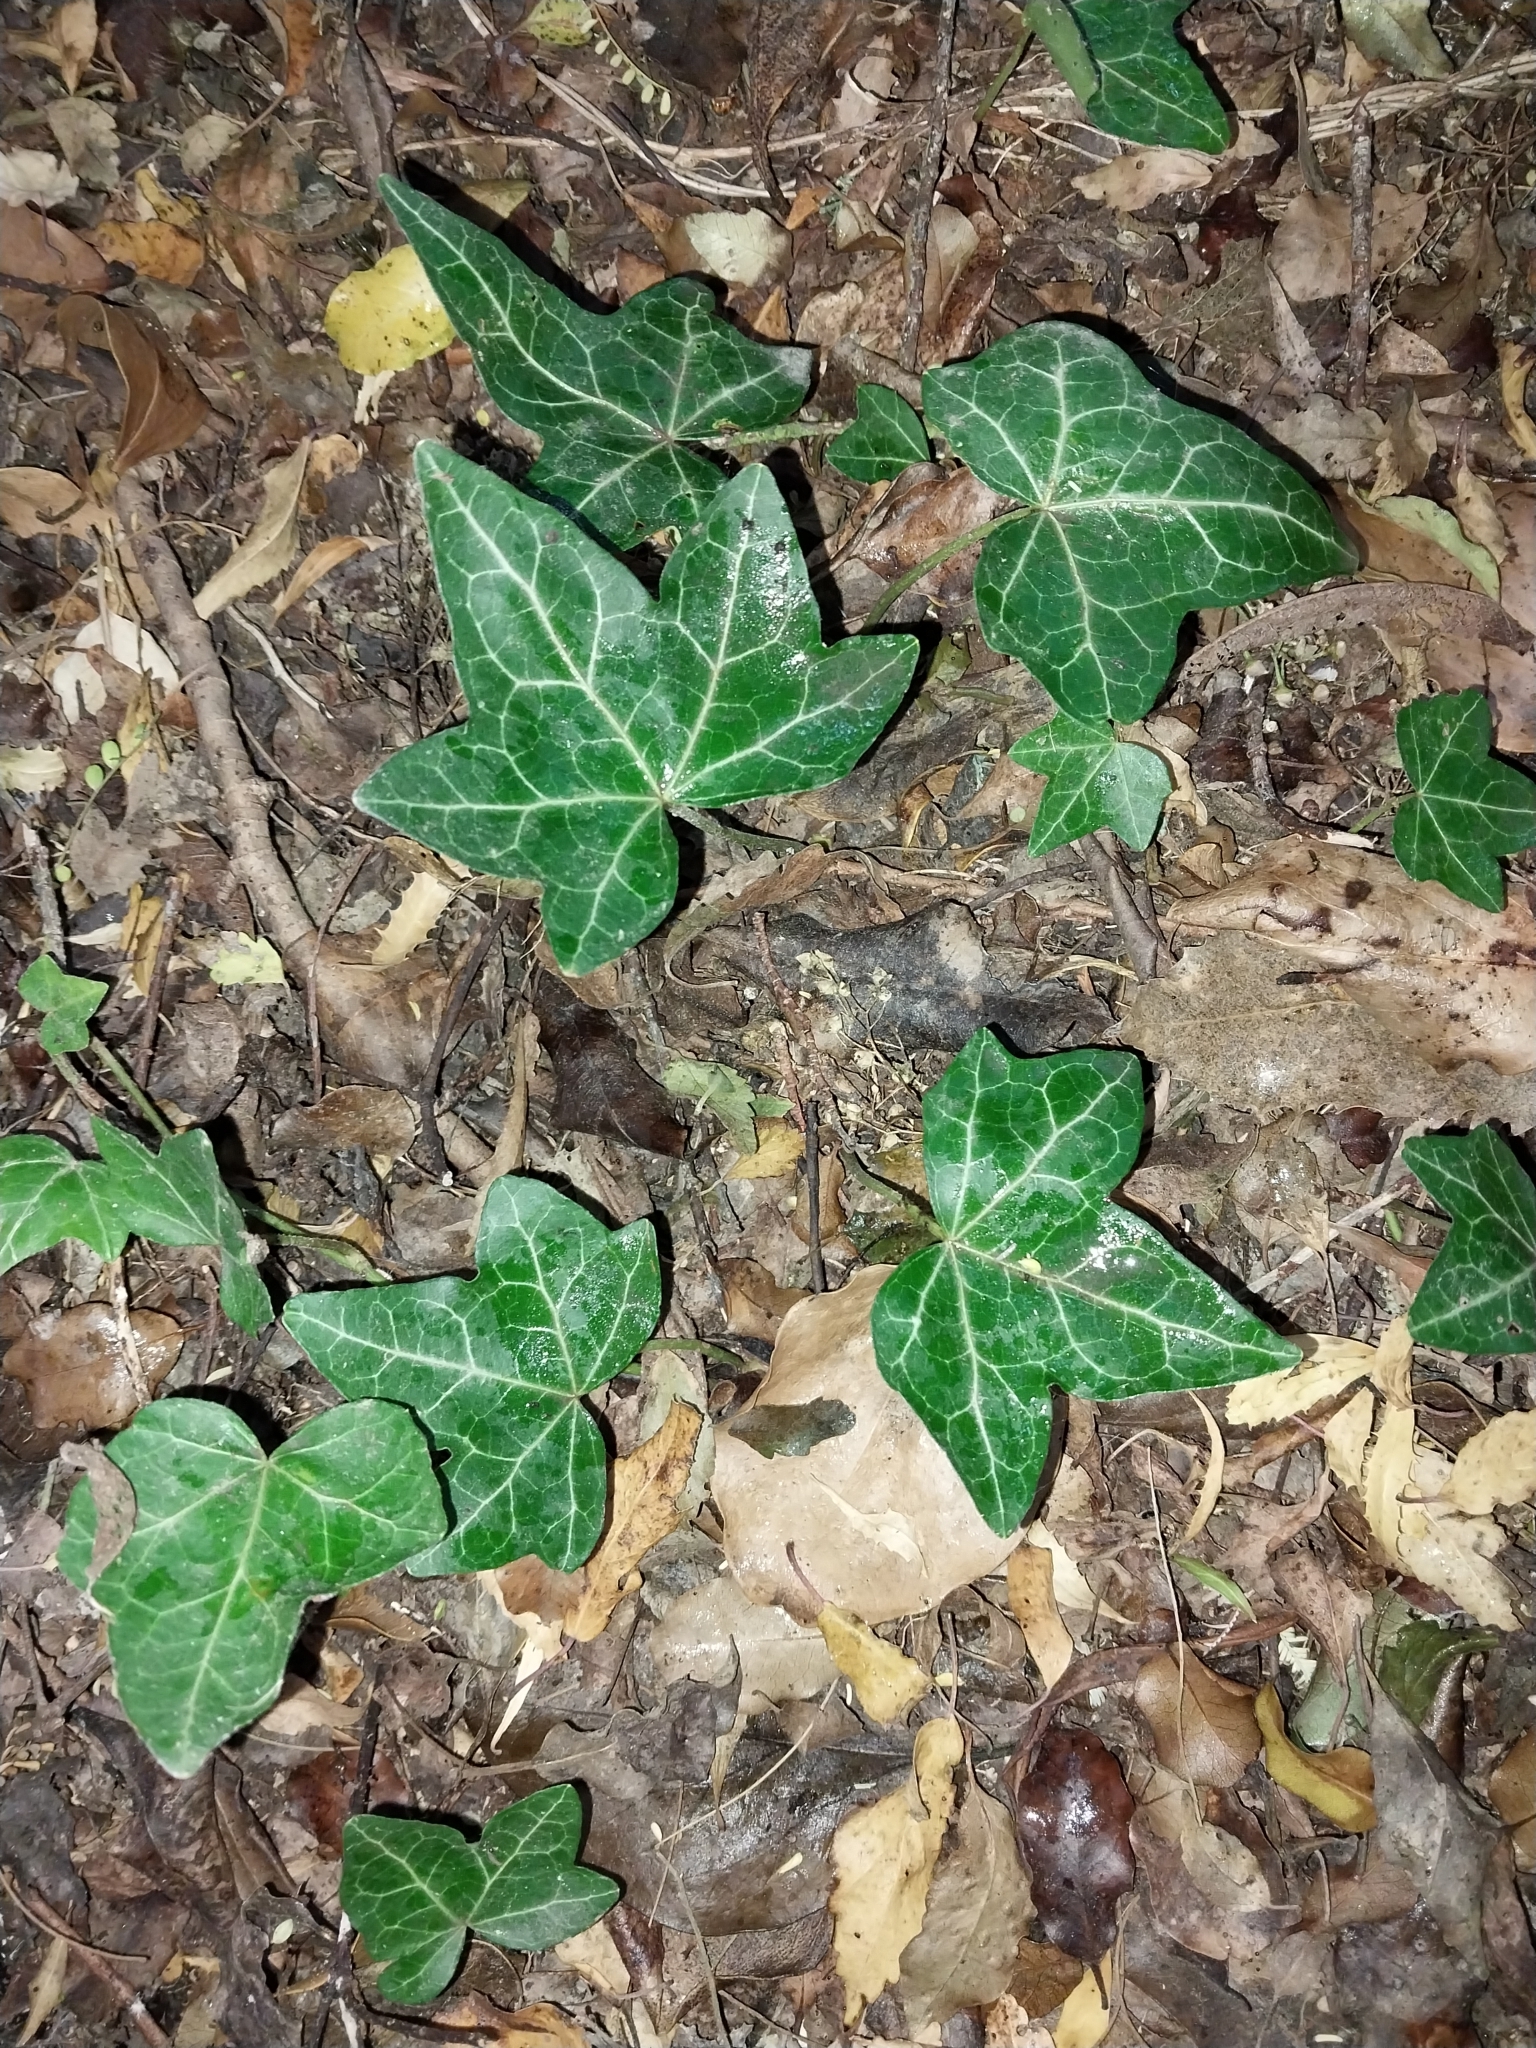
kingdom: Plantae
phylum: Tracheophyta
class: Magnoliopsida
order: Apiales
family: Araliaceae
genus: Hedera
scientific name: Hedera helix
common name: Ivy
